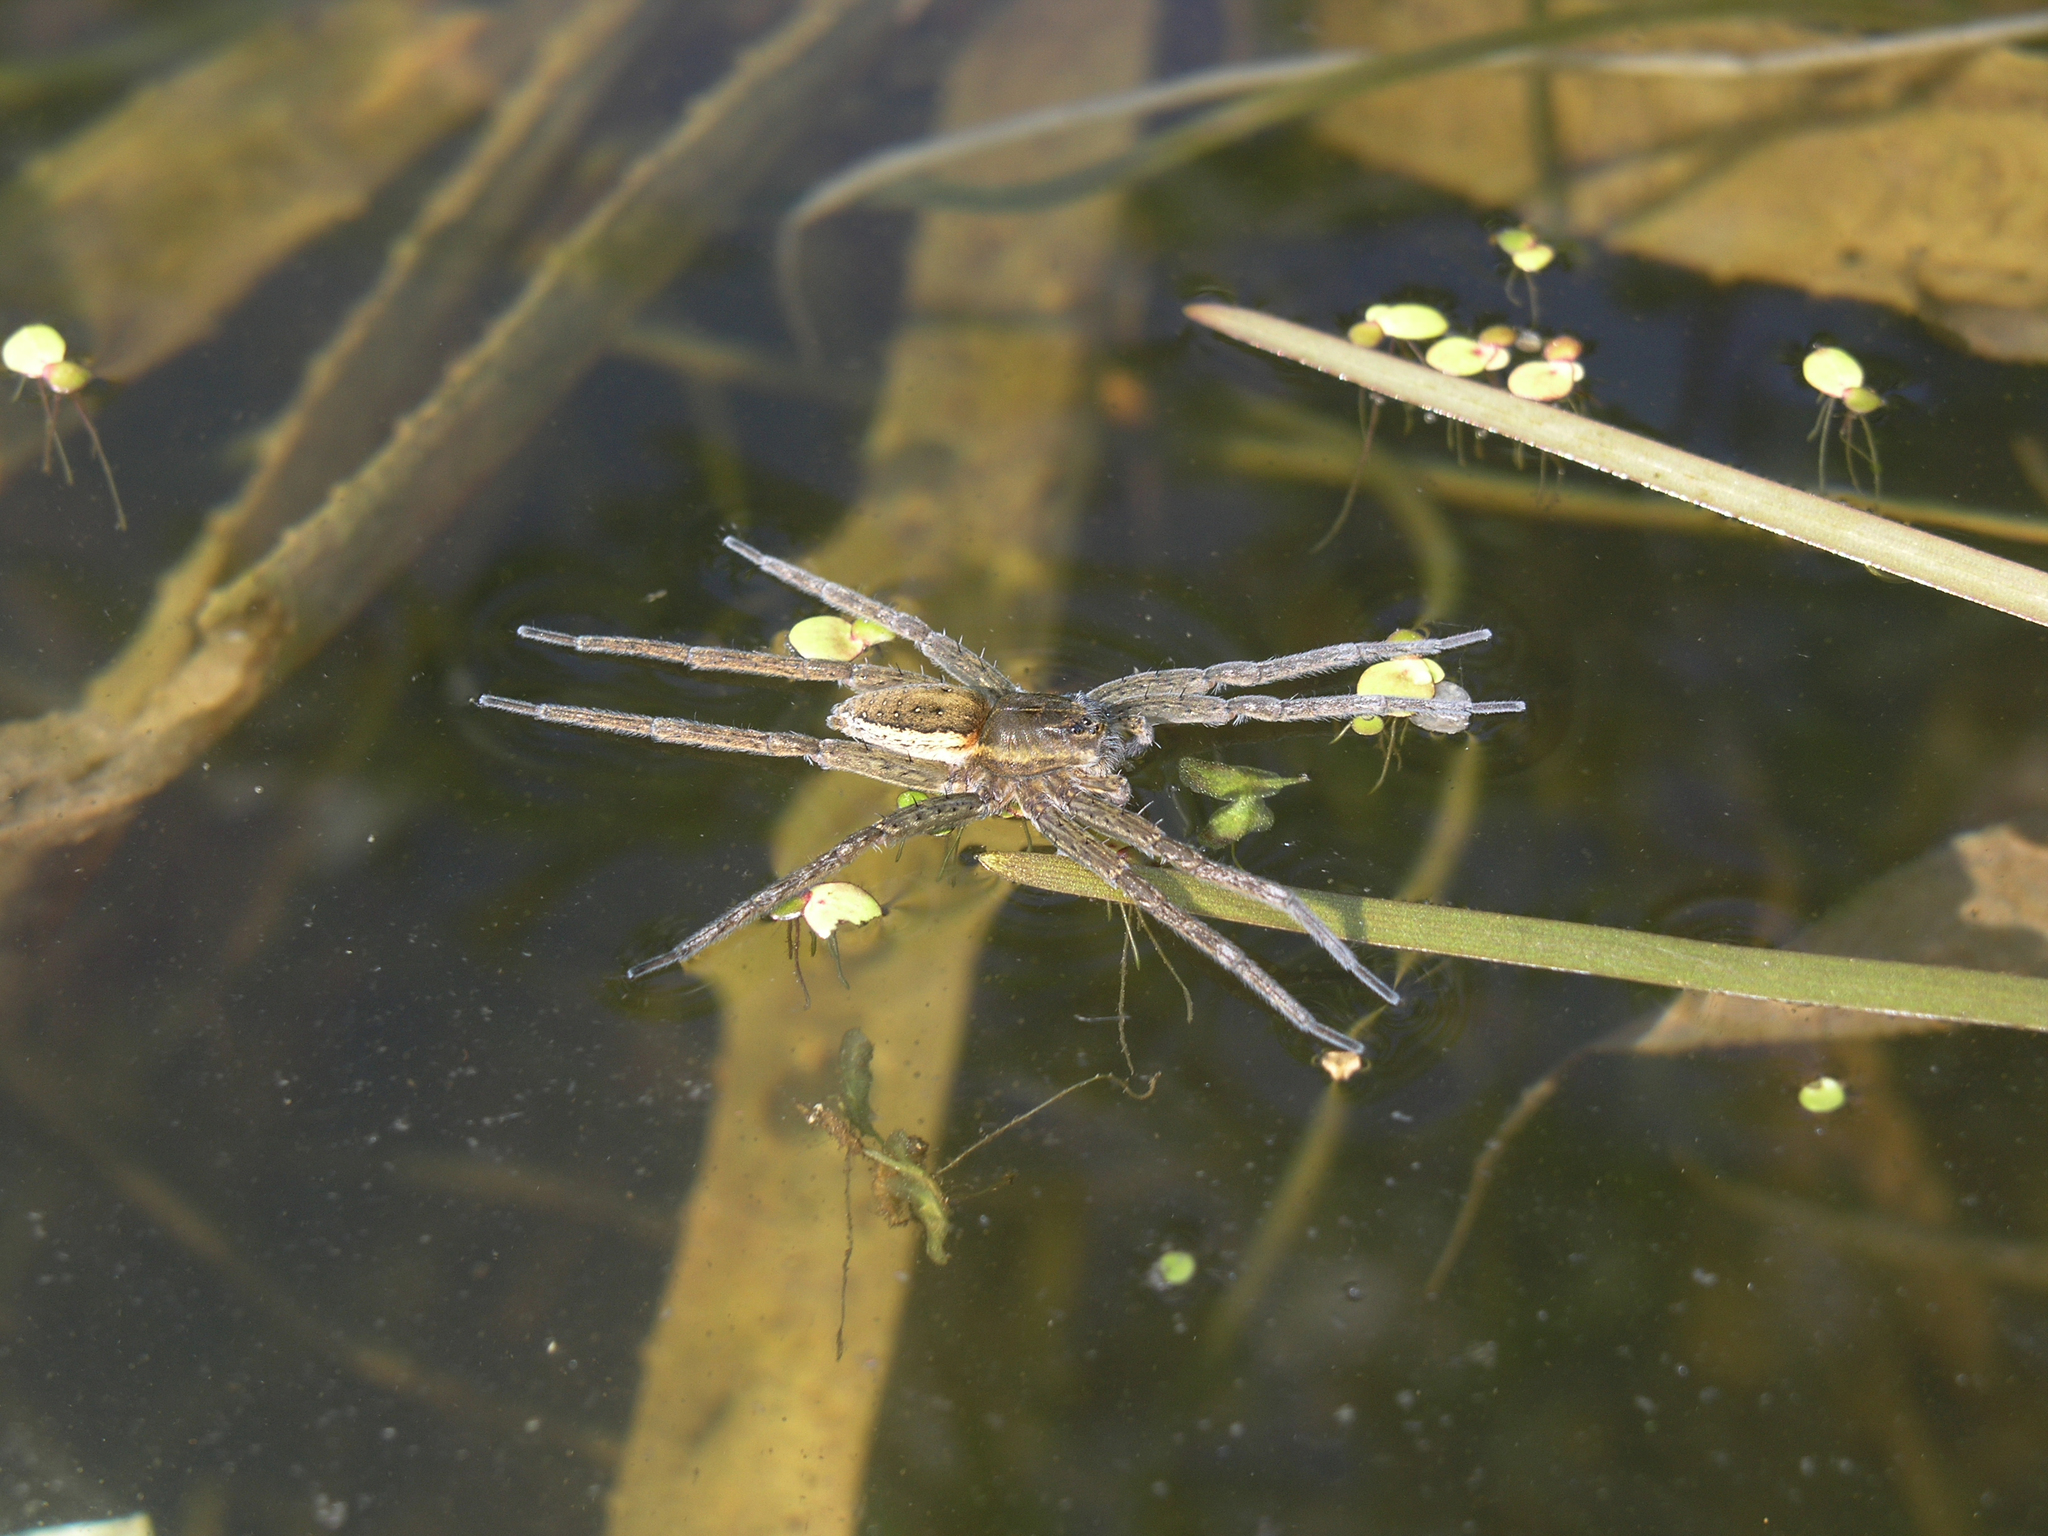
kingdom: Plantae
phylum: Tracheophyta
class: Liliopsida
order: Alismatales
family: Araceae
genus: Spirodela
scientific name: Spirodela polyrhiza
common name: Great duckweed
